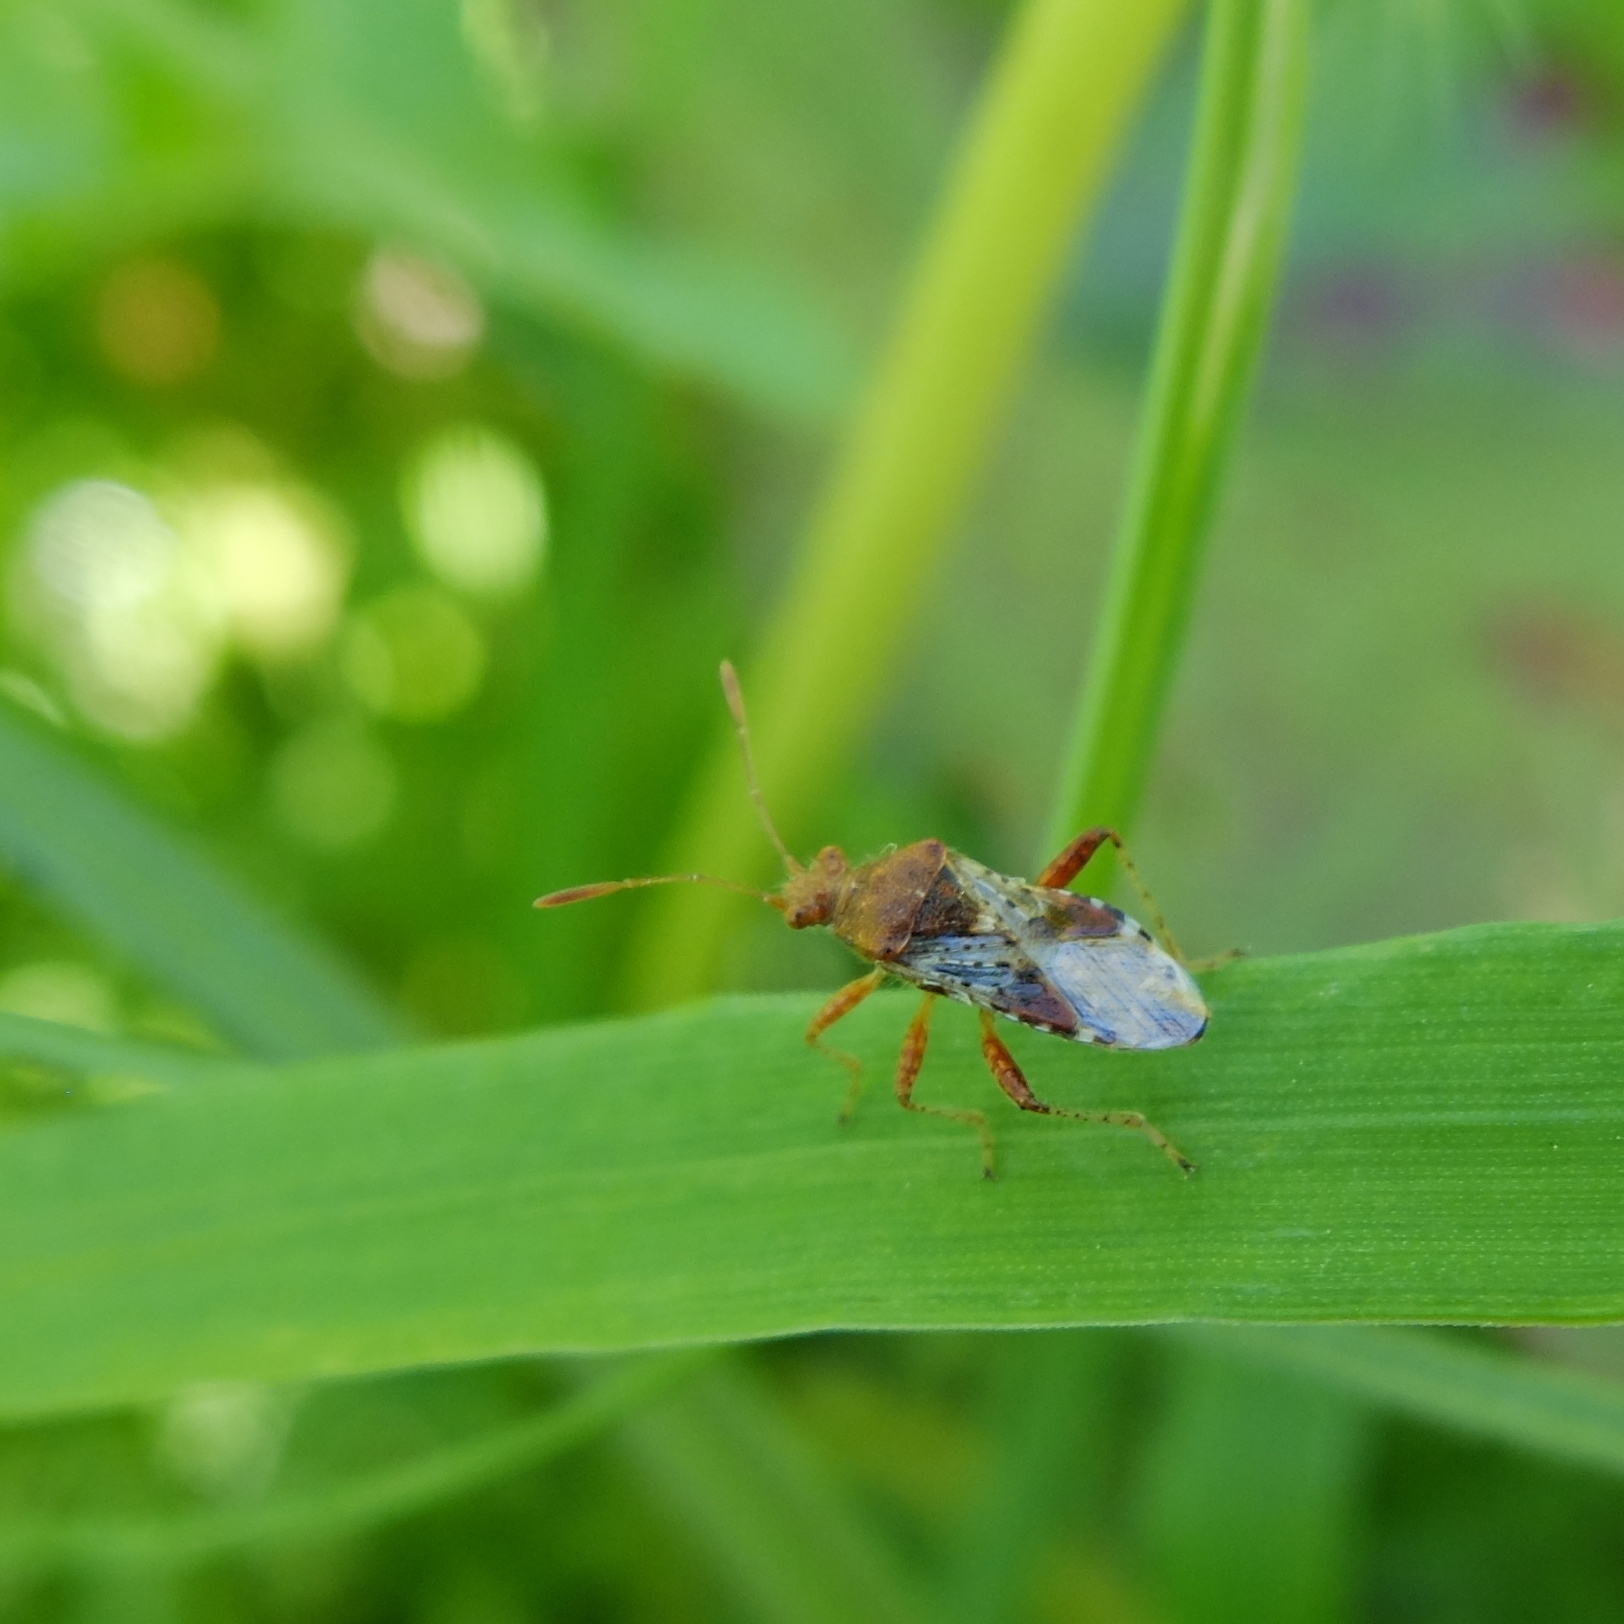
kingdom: Animalia
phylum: Arthropoda
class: Insecta
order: Hemiptera
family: Rhopalidae
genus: Rhopalus
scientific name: Rhopalus subrufus
